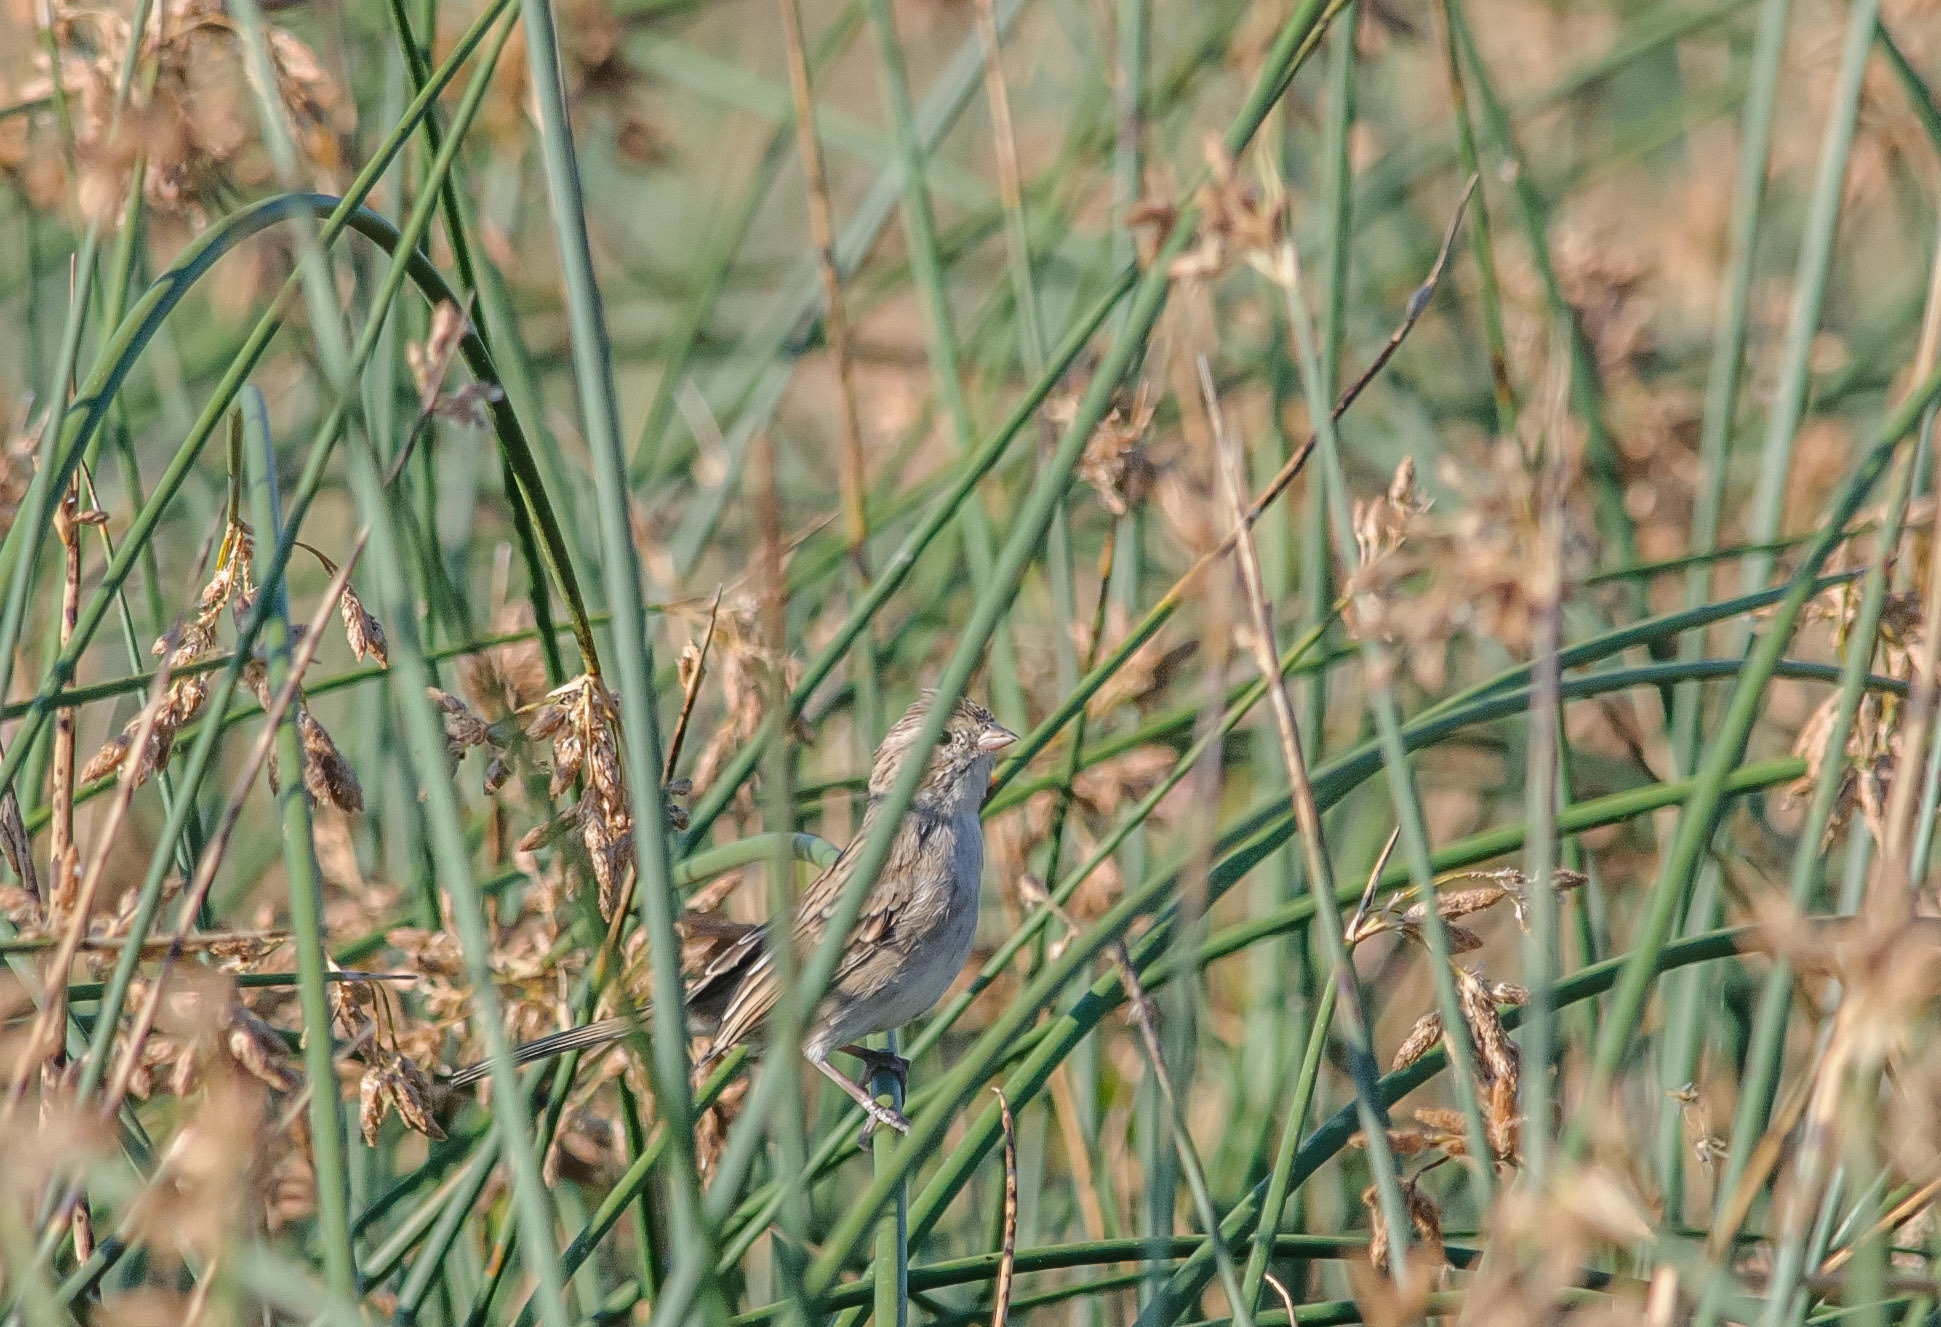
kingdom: Animalia
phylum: Chordata
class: Aves
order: Passeriformes
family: Passerellidae
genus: Spizella
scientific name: Spizella breweri
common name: Brewer's sparrow
